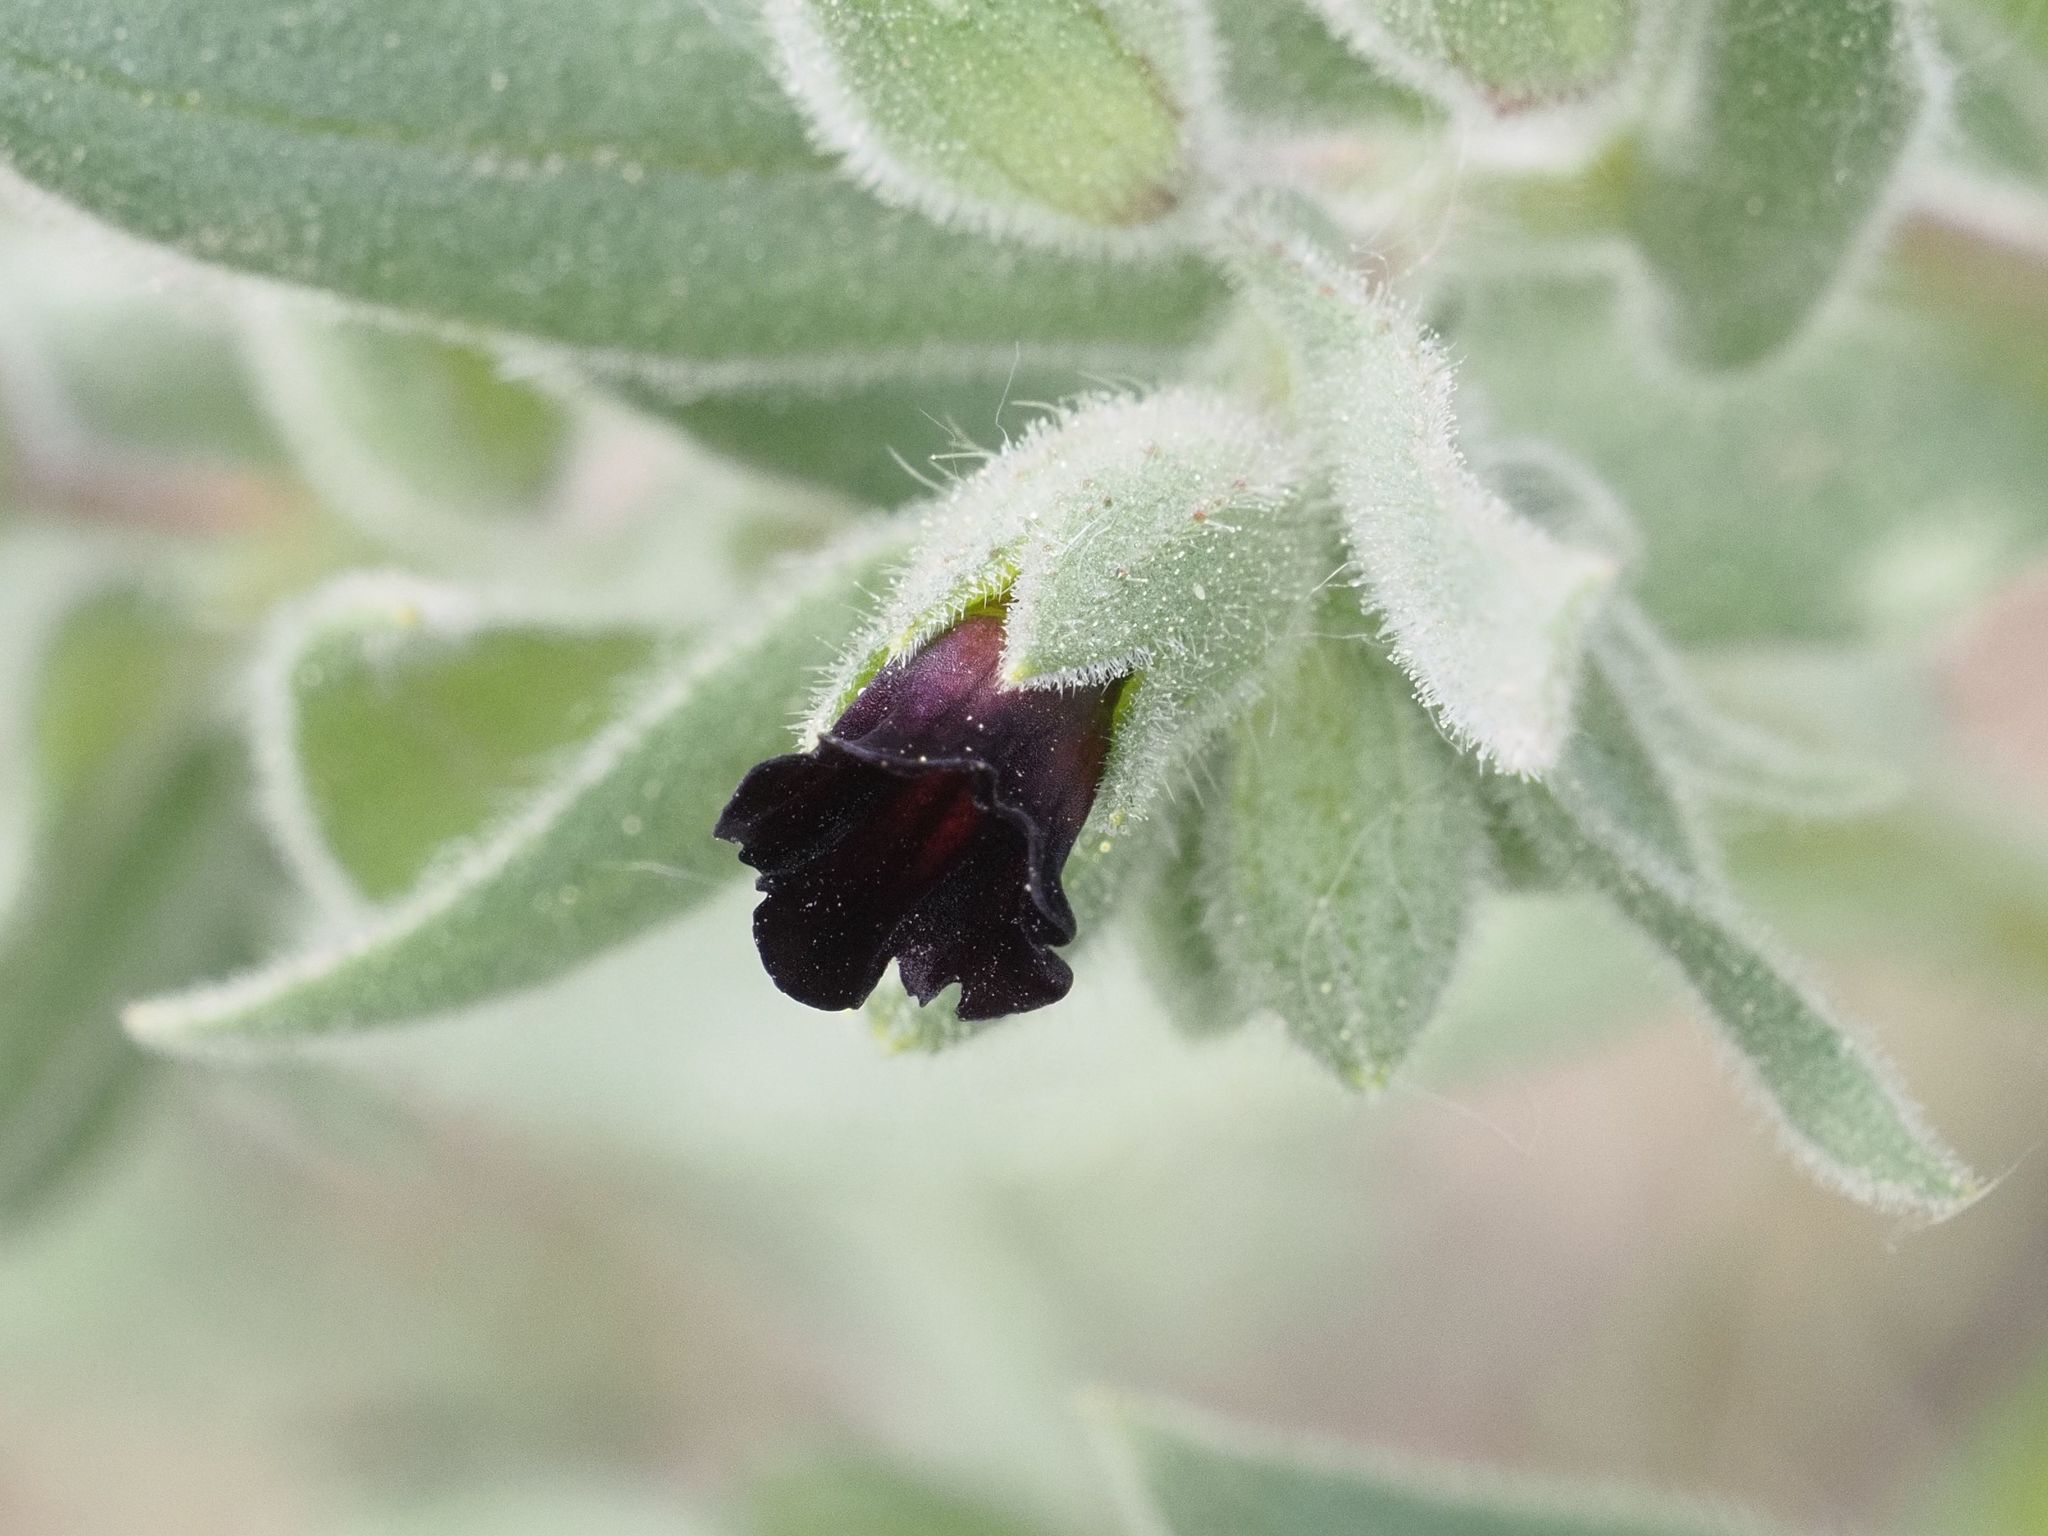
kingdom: Plantae
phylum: Tracheophyta
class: Magnoliopsida
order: Boraginales
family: Boraginaceae
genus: Nonea
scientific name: Nonea pulla
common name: Brown nonea
